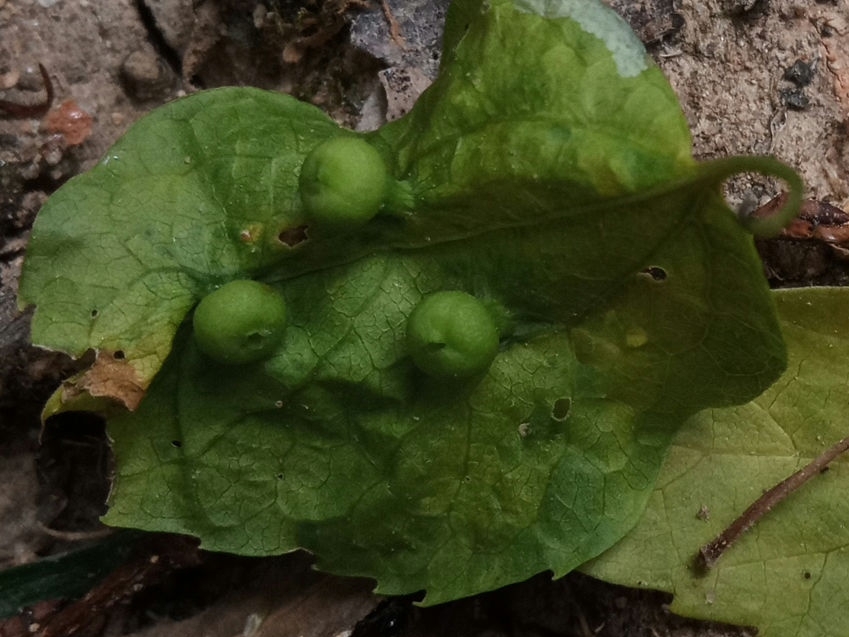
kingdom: Animalia
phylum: Arthropoda
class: Insecta
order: Hemiptera
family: Aphalaridae
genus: Pachypsylla
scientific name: Pachypsylla celtidismamma
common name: Hackberry nipplegall psyllid
